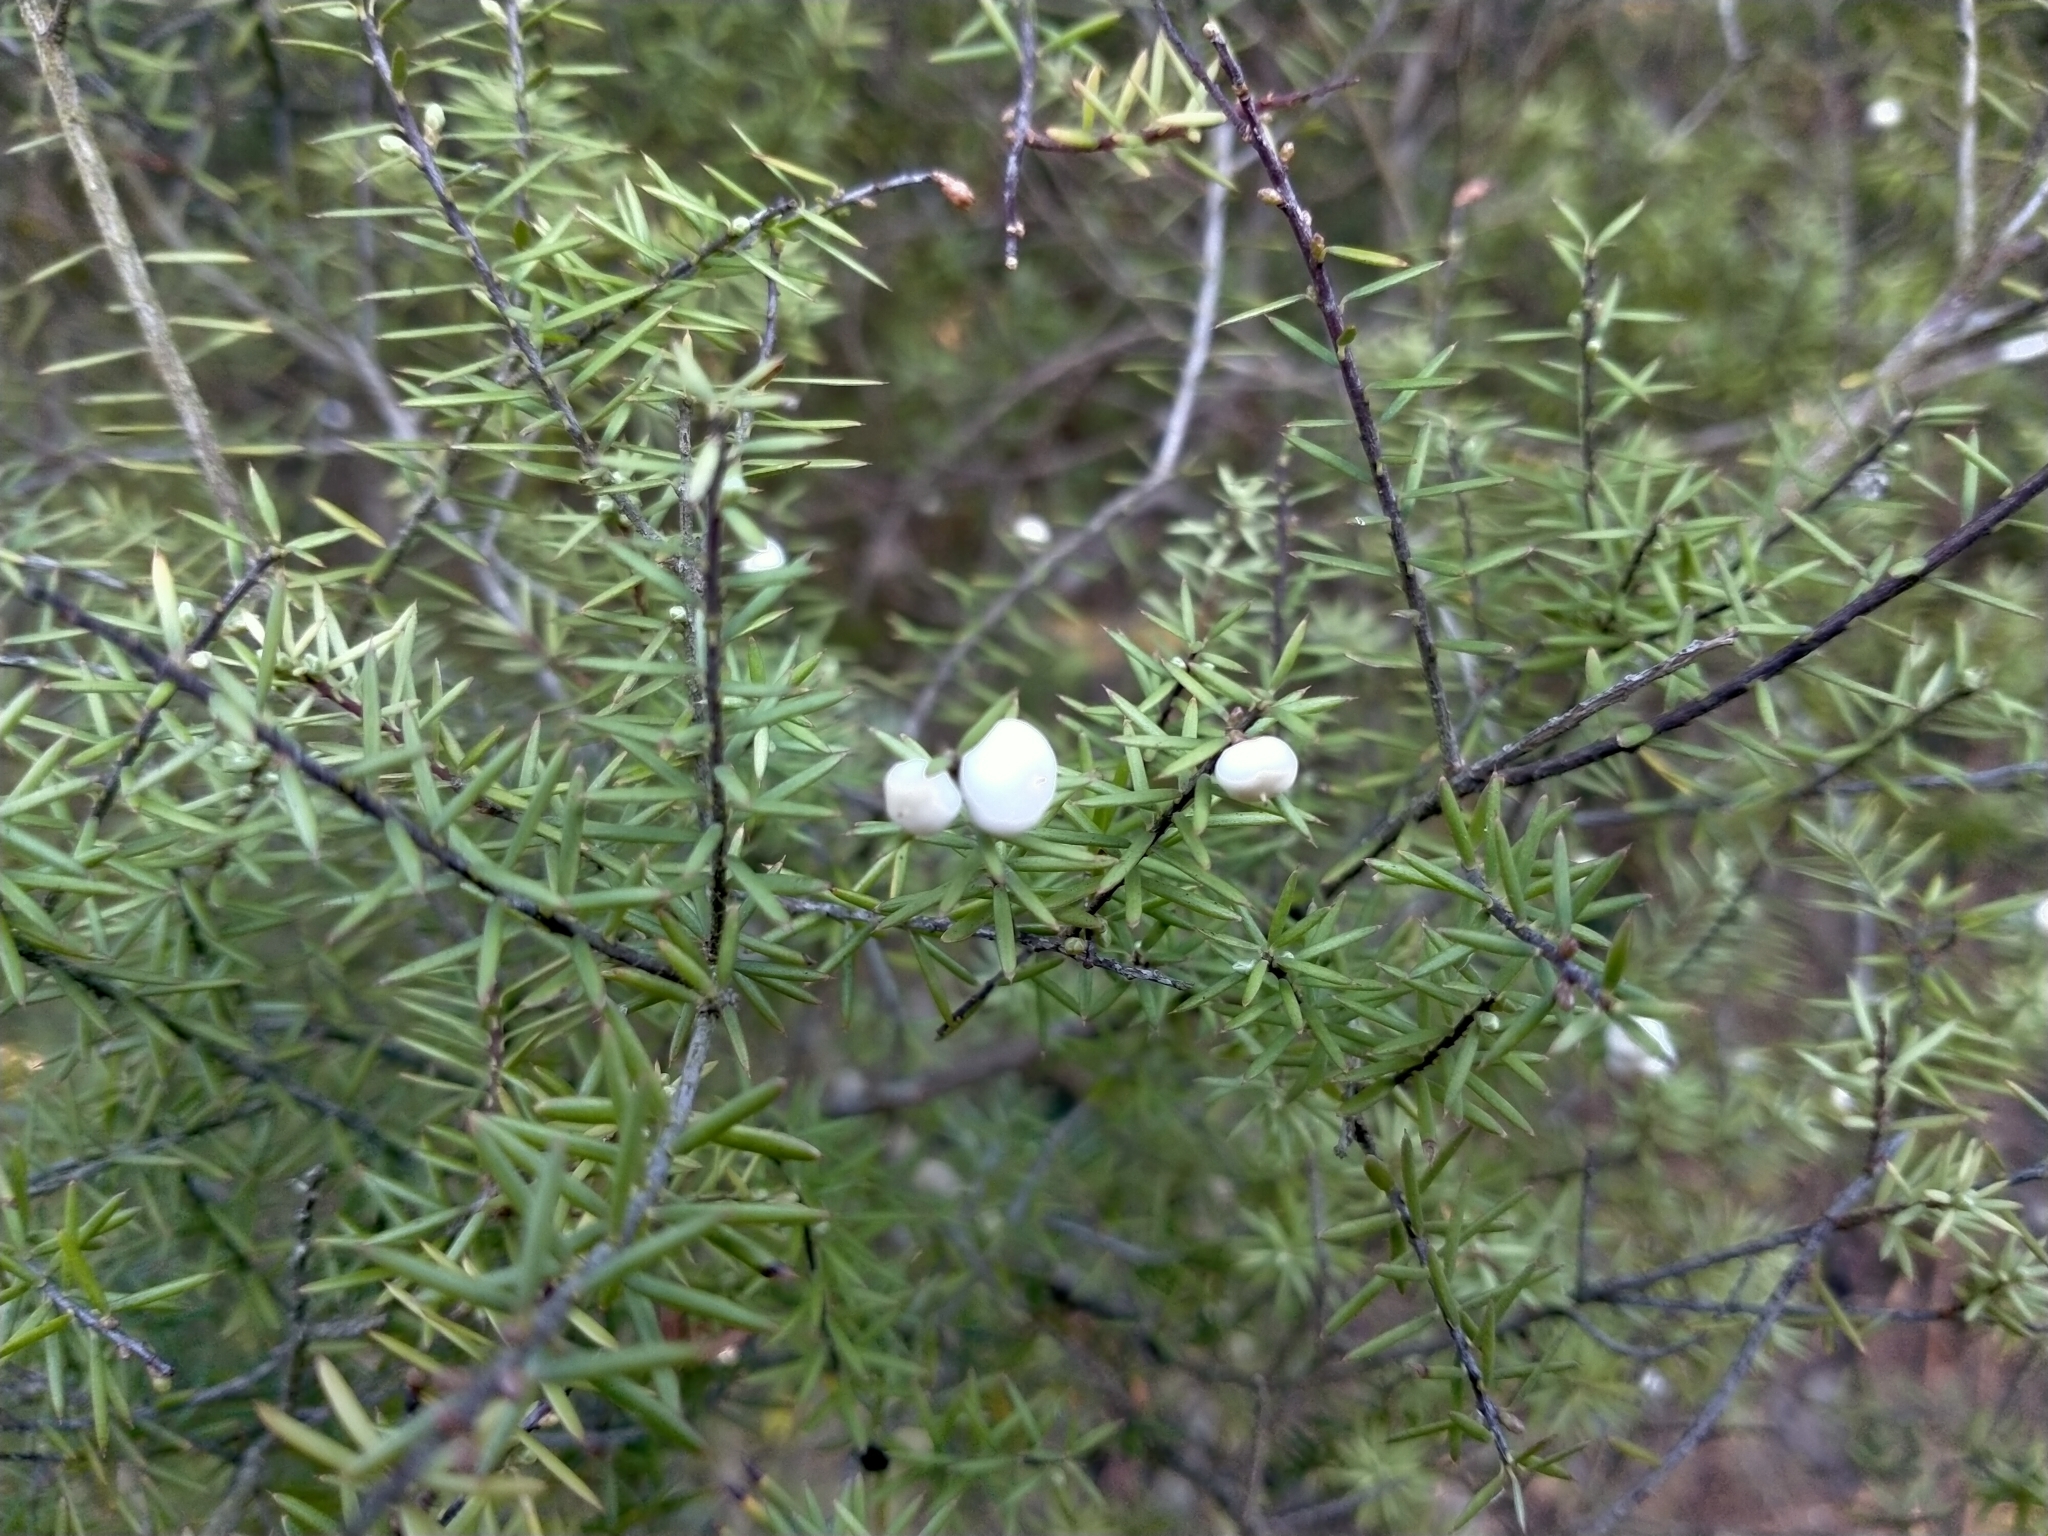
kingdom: Plantae
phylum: Tracheophyta
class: Magnoliopsida
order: Ericales
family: Ericaceae
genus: Leptecophylla
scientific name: Leptecophylla juniperina
